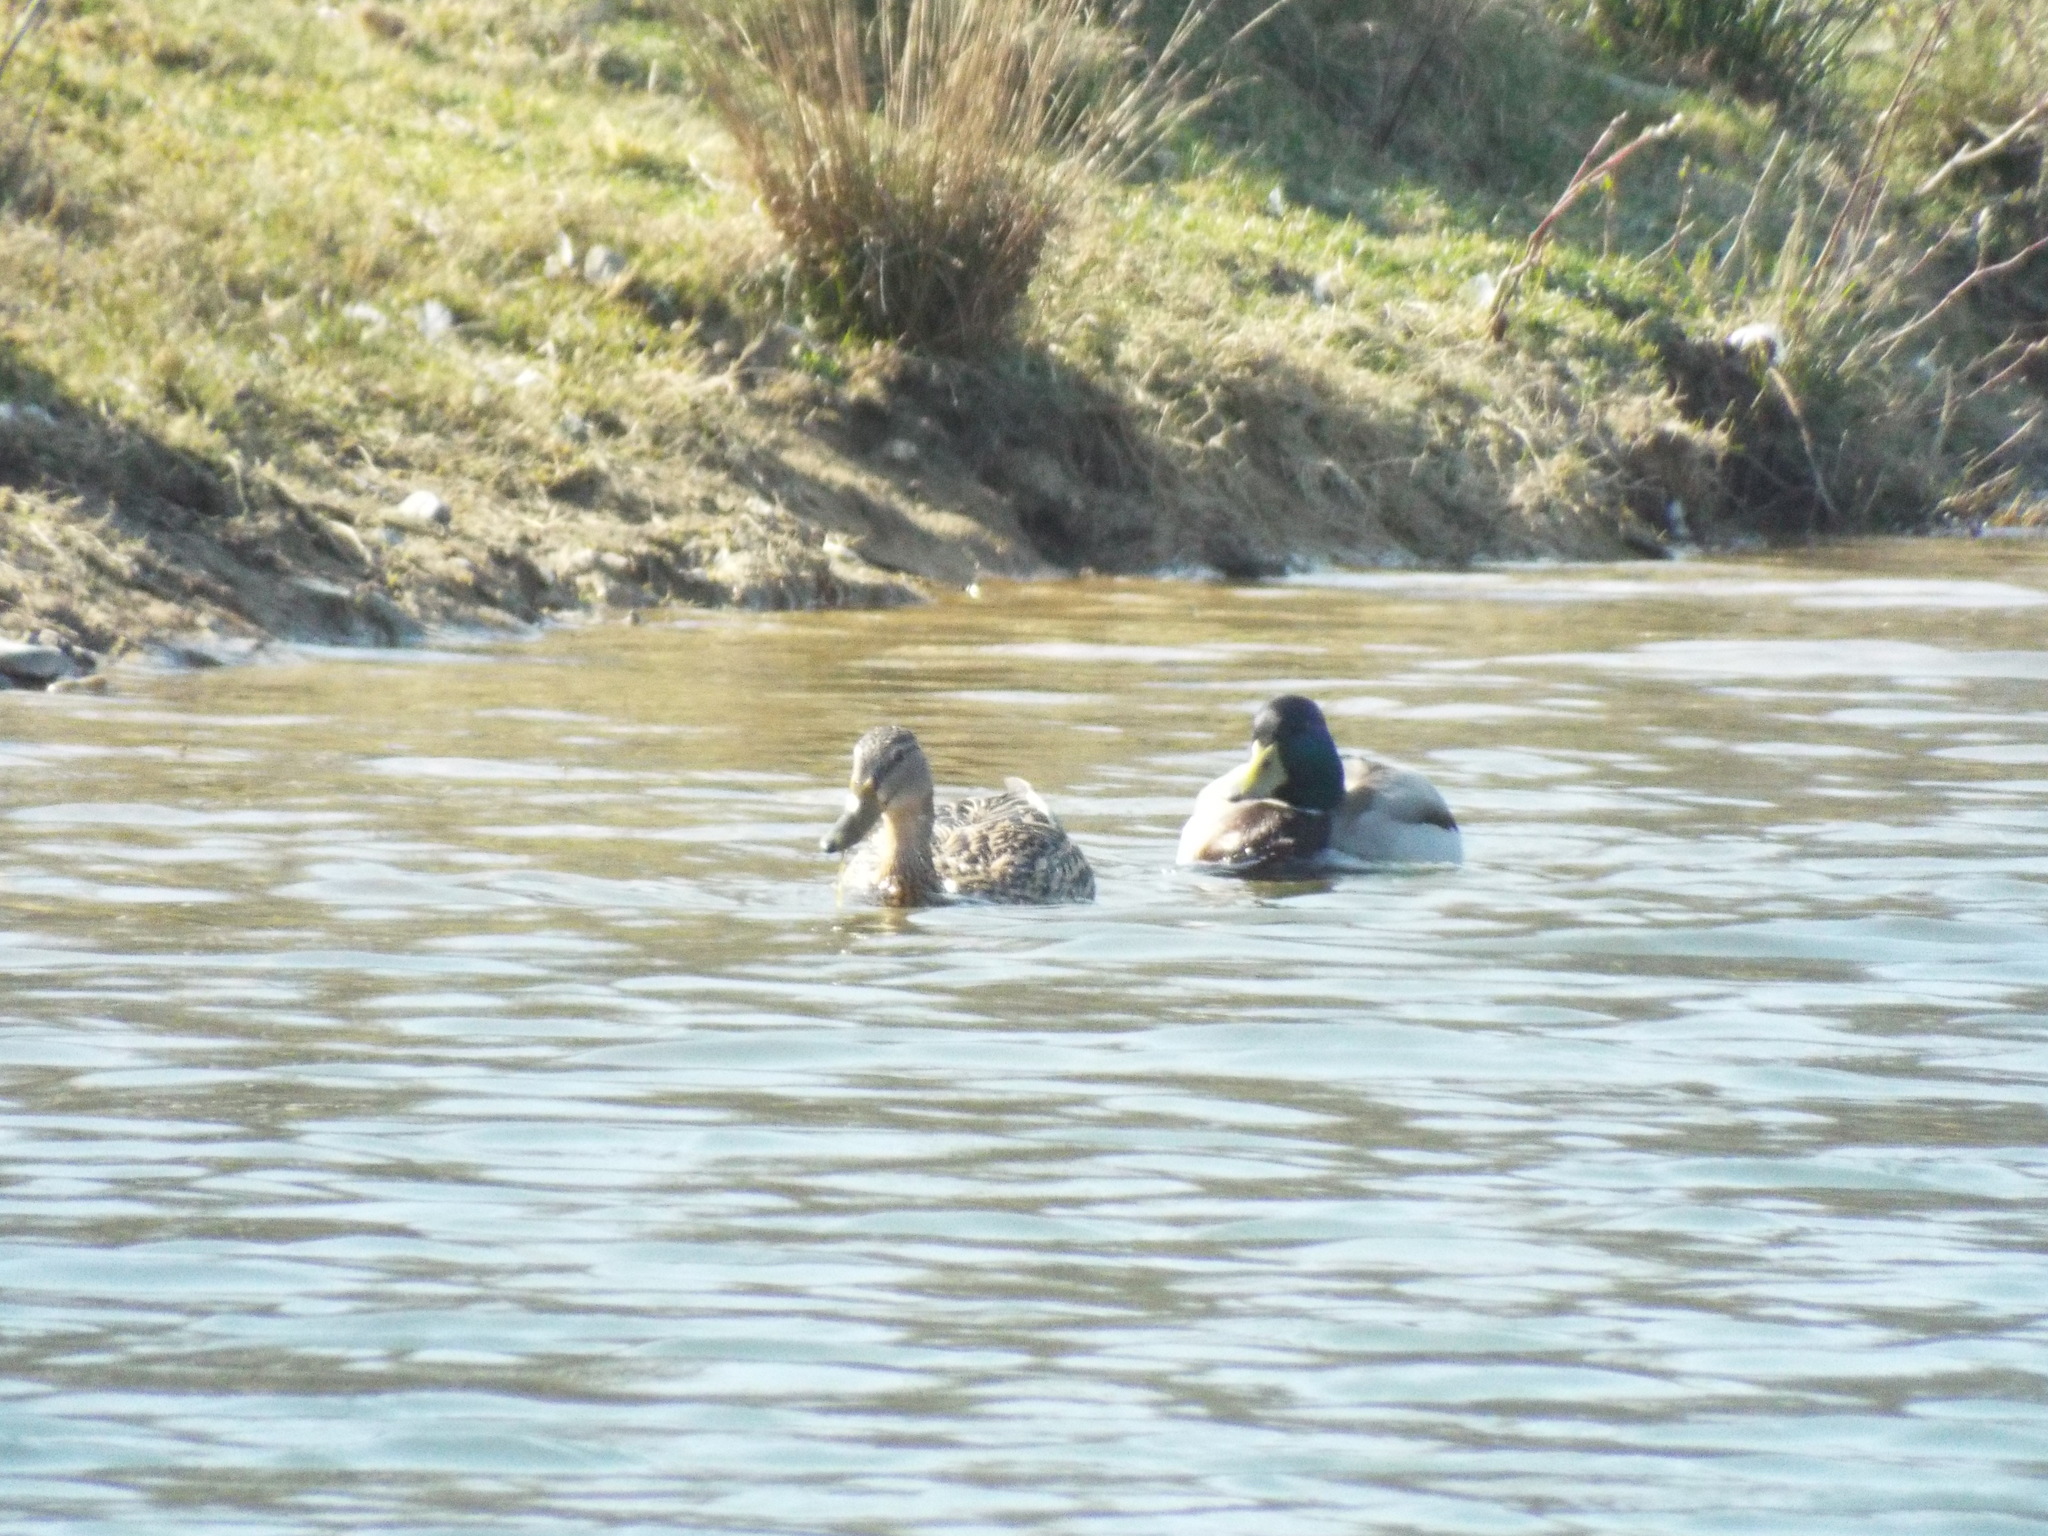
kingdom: Animalia
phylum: Chordata
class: Aves
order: Anseriformes
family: Anatidae
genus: Anas
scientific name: Anas platyrhynchos
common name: Mallard
